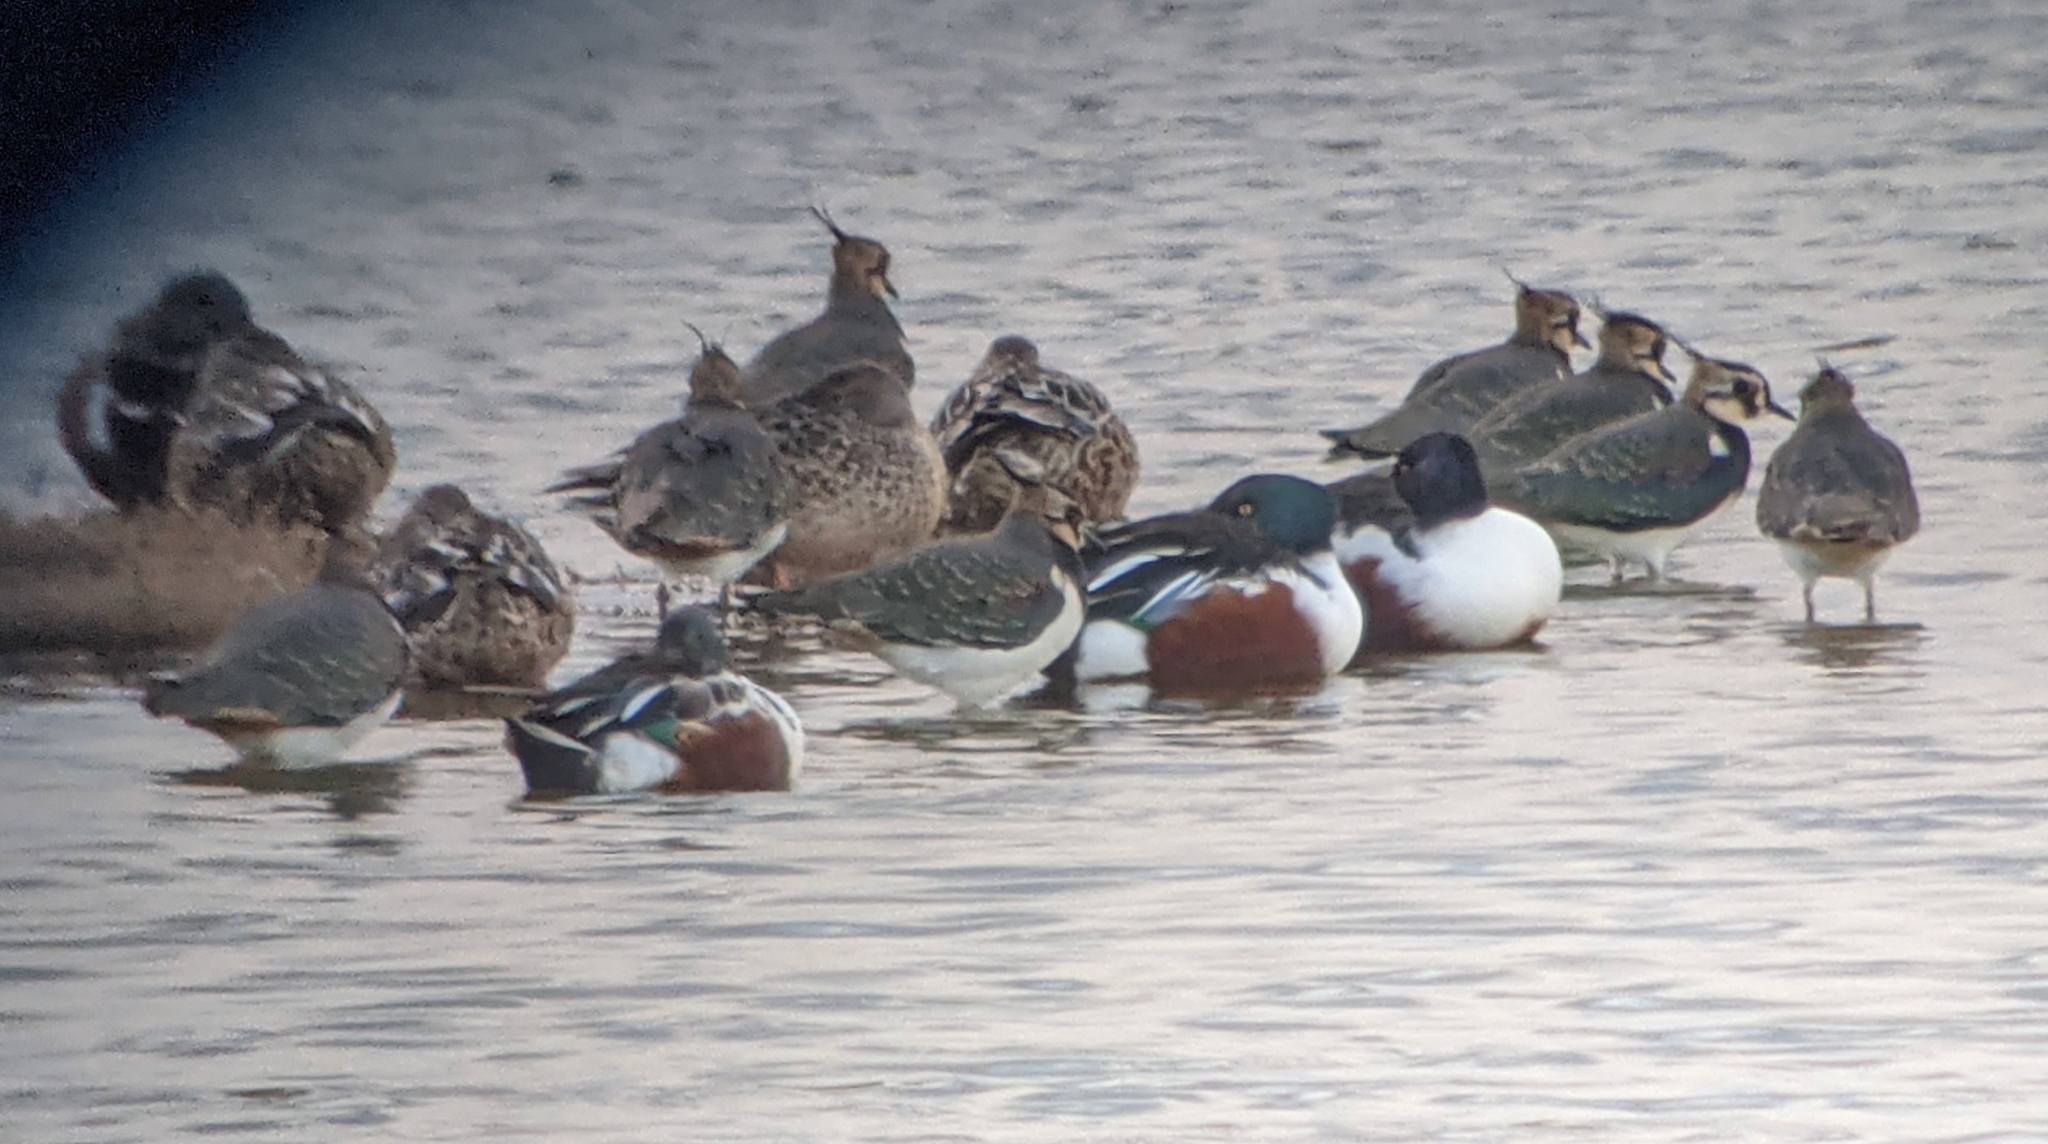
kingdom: Animalia
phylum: Chordata
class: Aves
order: Anseriformes
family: Anatidae
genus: Spatula
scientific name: Spatula clypeata
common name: Northern shoveler
